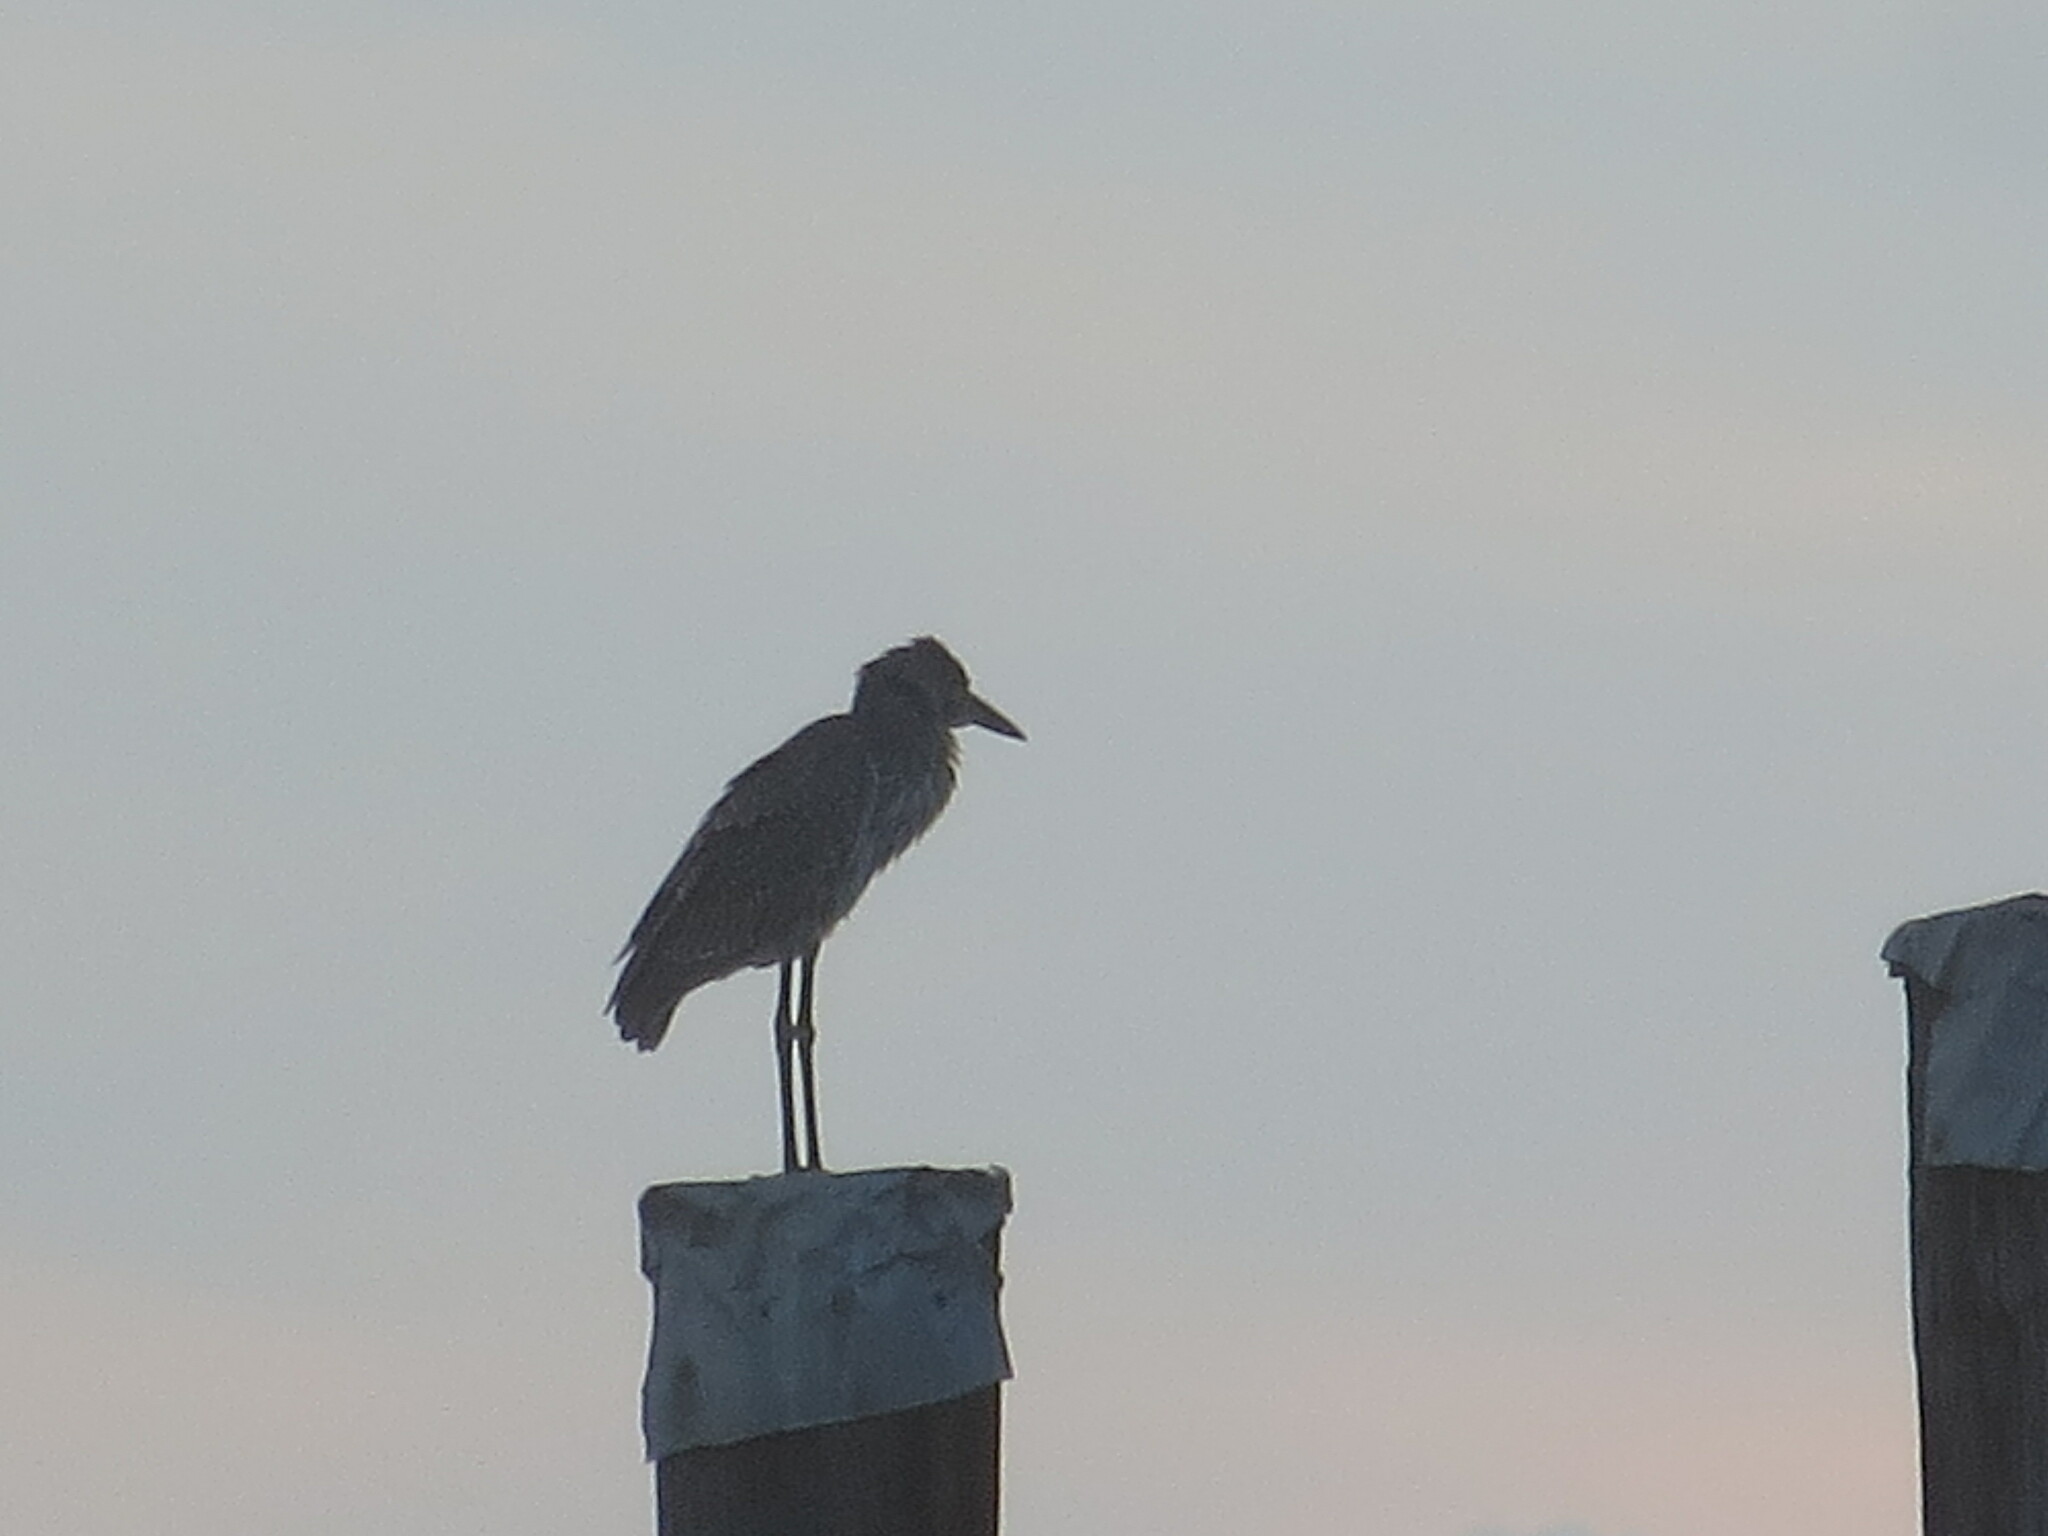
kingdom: Animalia
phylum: Chordata
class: Aves
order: Pelecaniformes
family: Ardeidae
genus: Nyctanassa
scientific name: Nyctanassa violacea
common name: Yellow-crowned night heron
